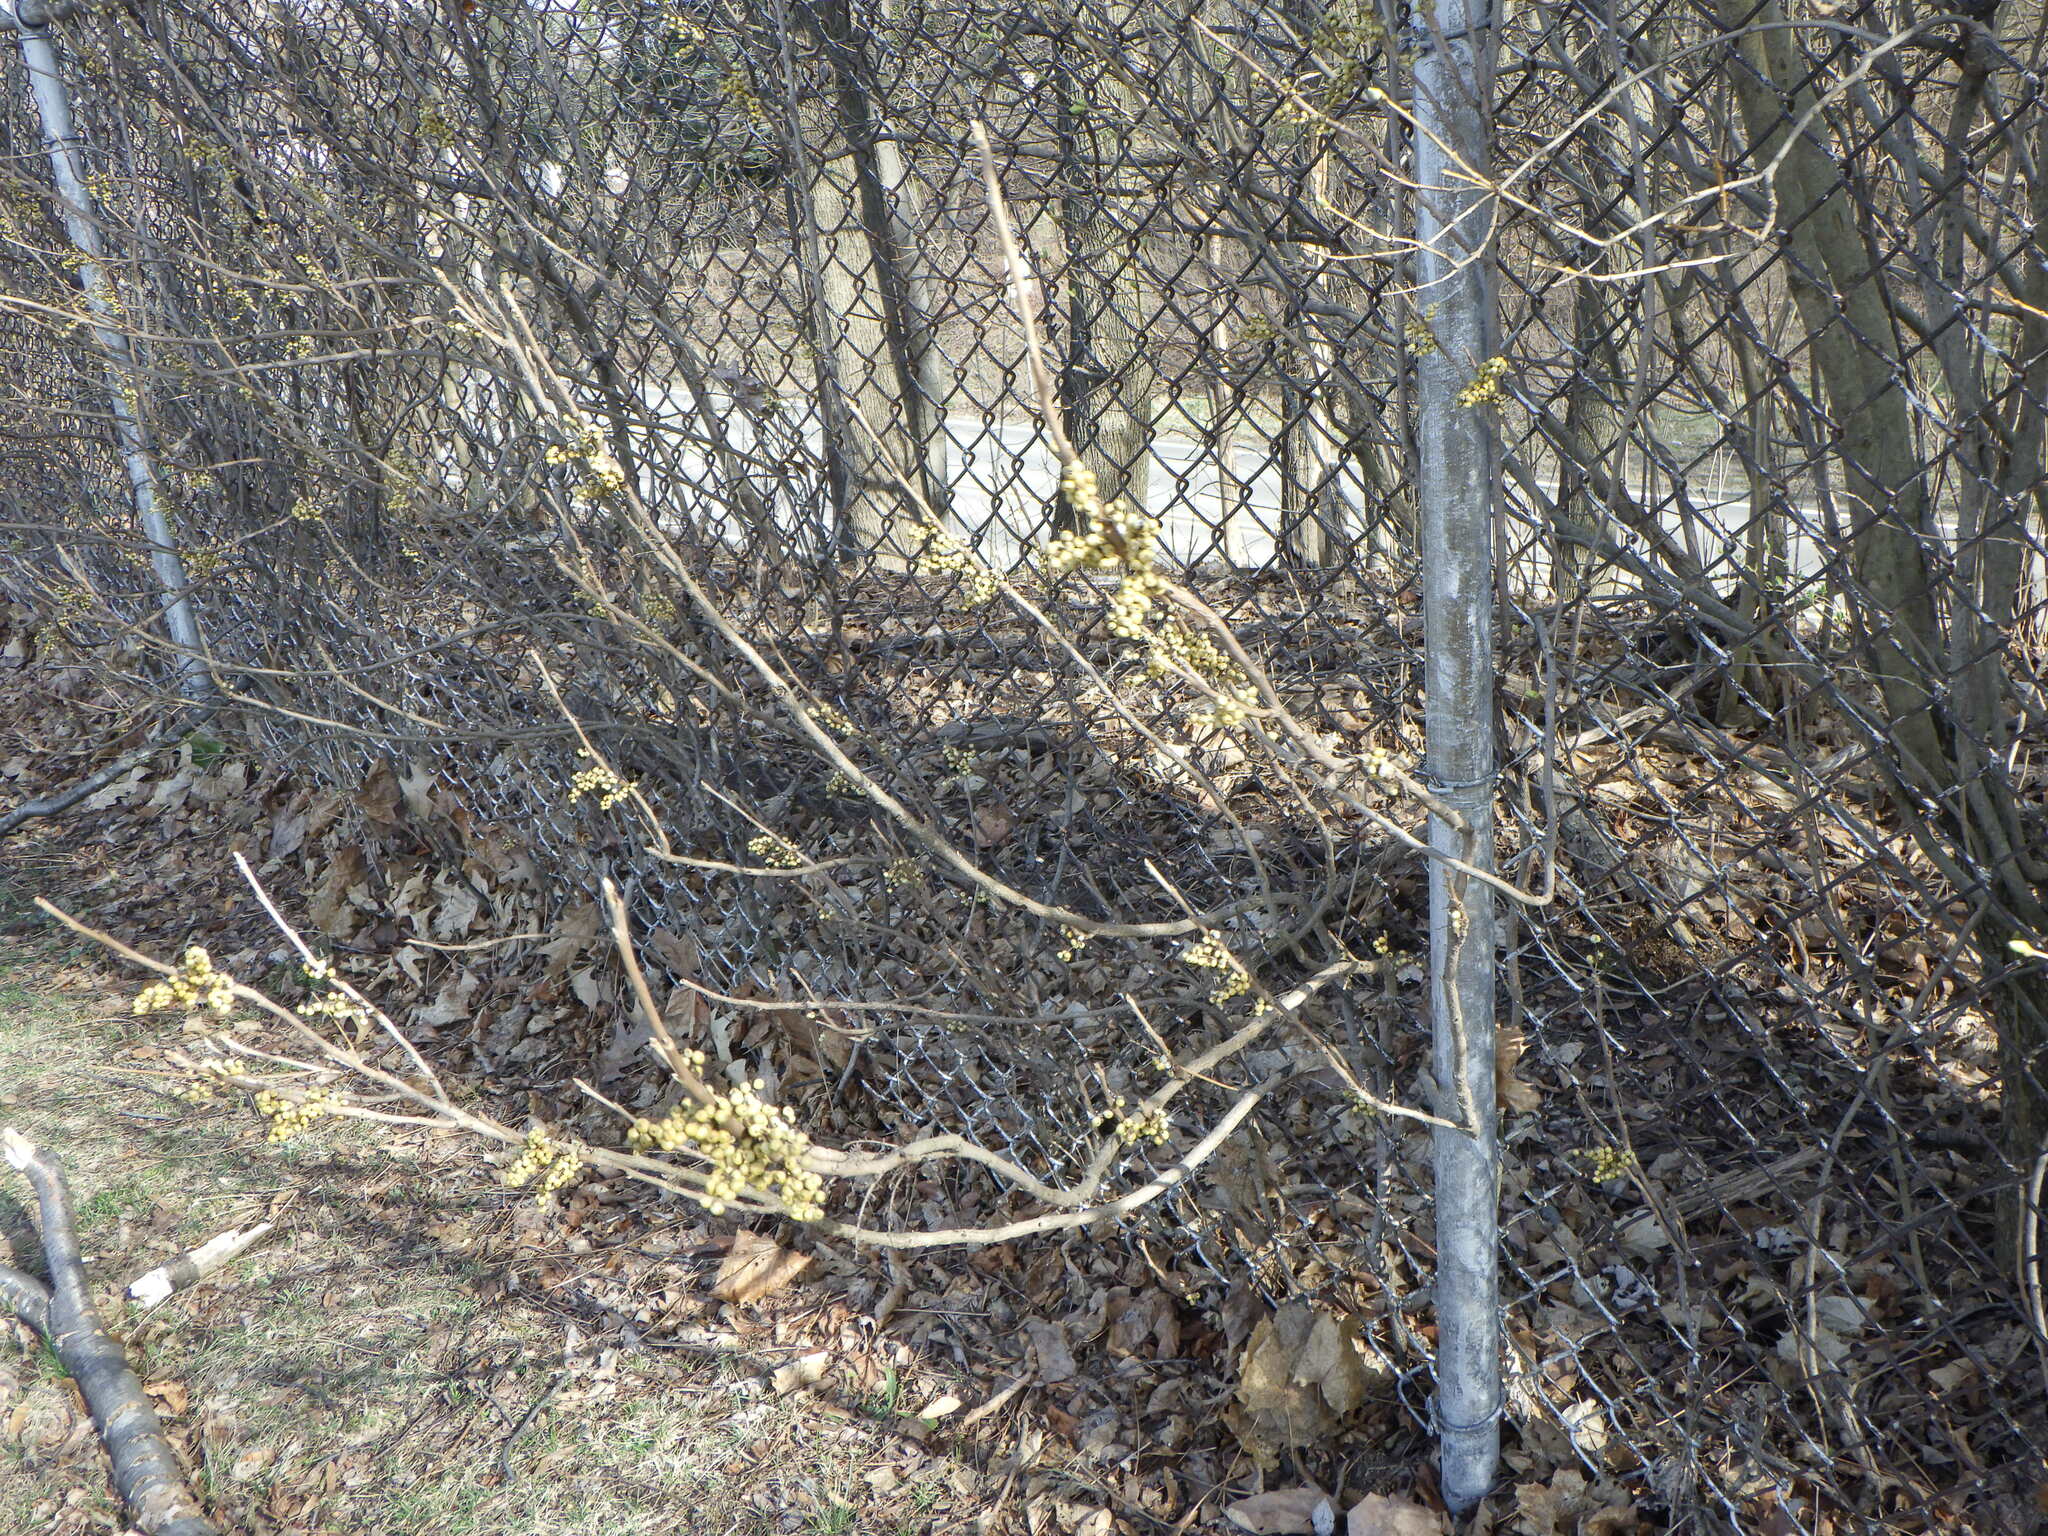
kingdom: Plantae
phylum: Tracheophyta
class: Magnoliopsida
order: Sapindales
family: Anacardiaceae
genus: Toxicodendron
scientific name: Toxicodendron radicans
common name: Poison ivy
